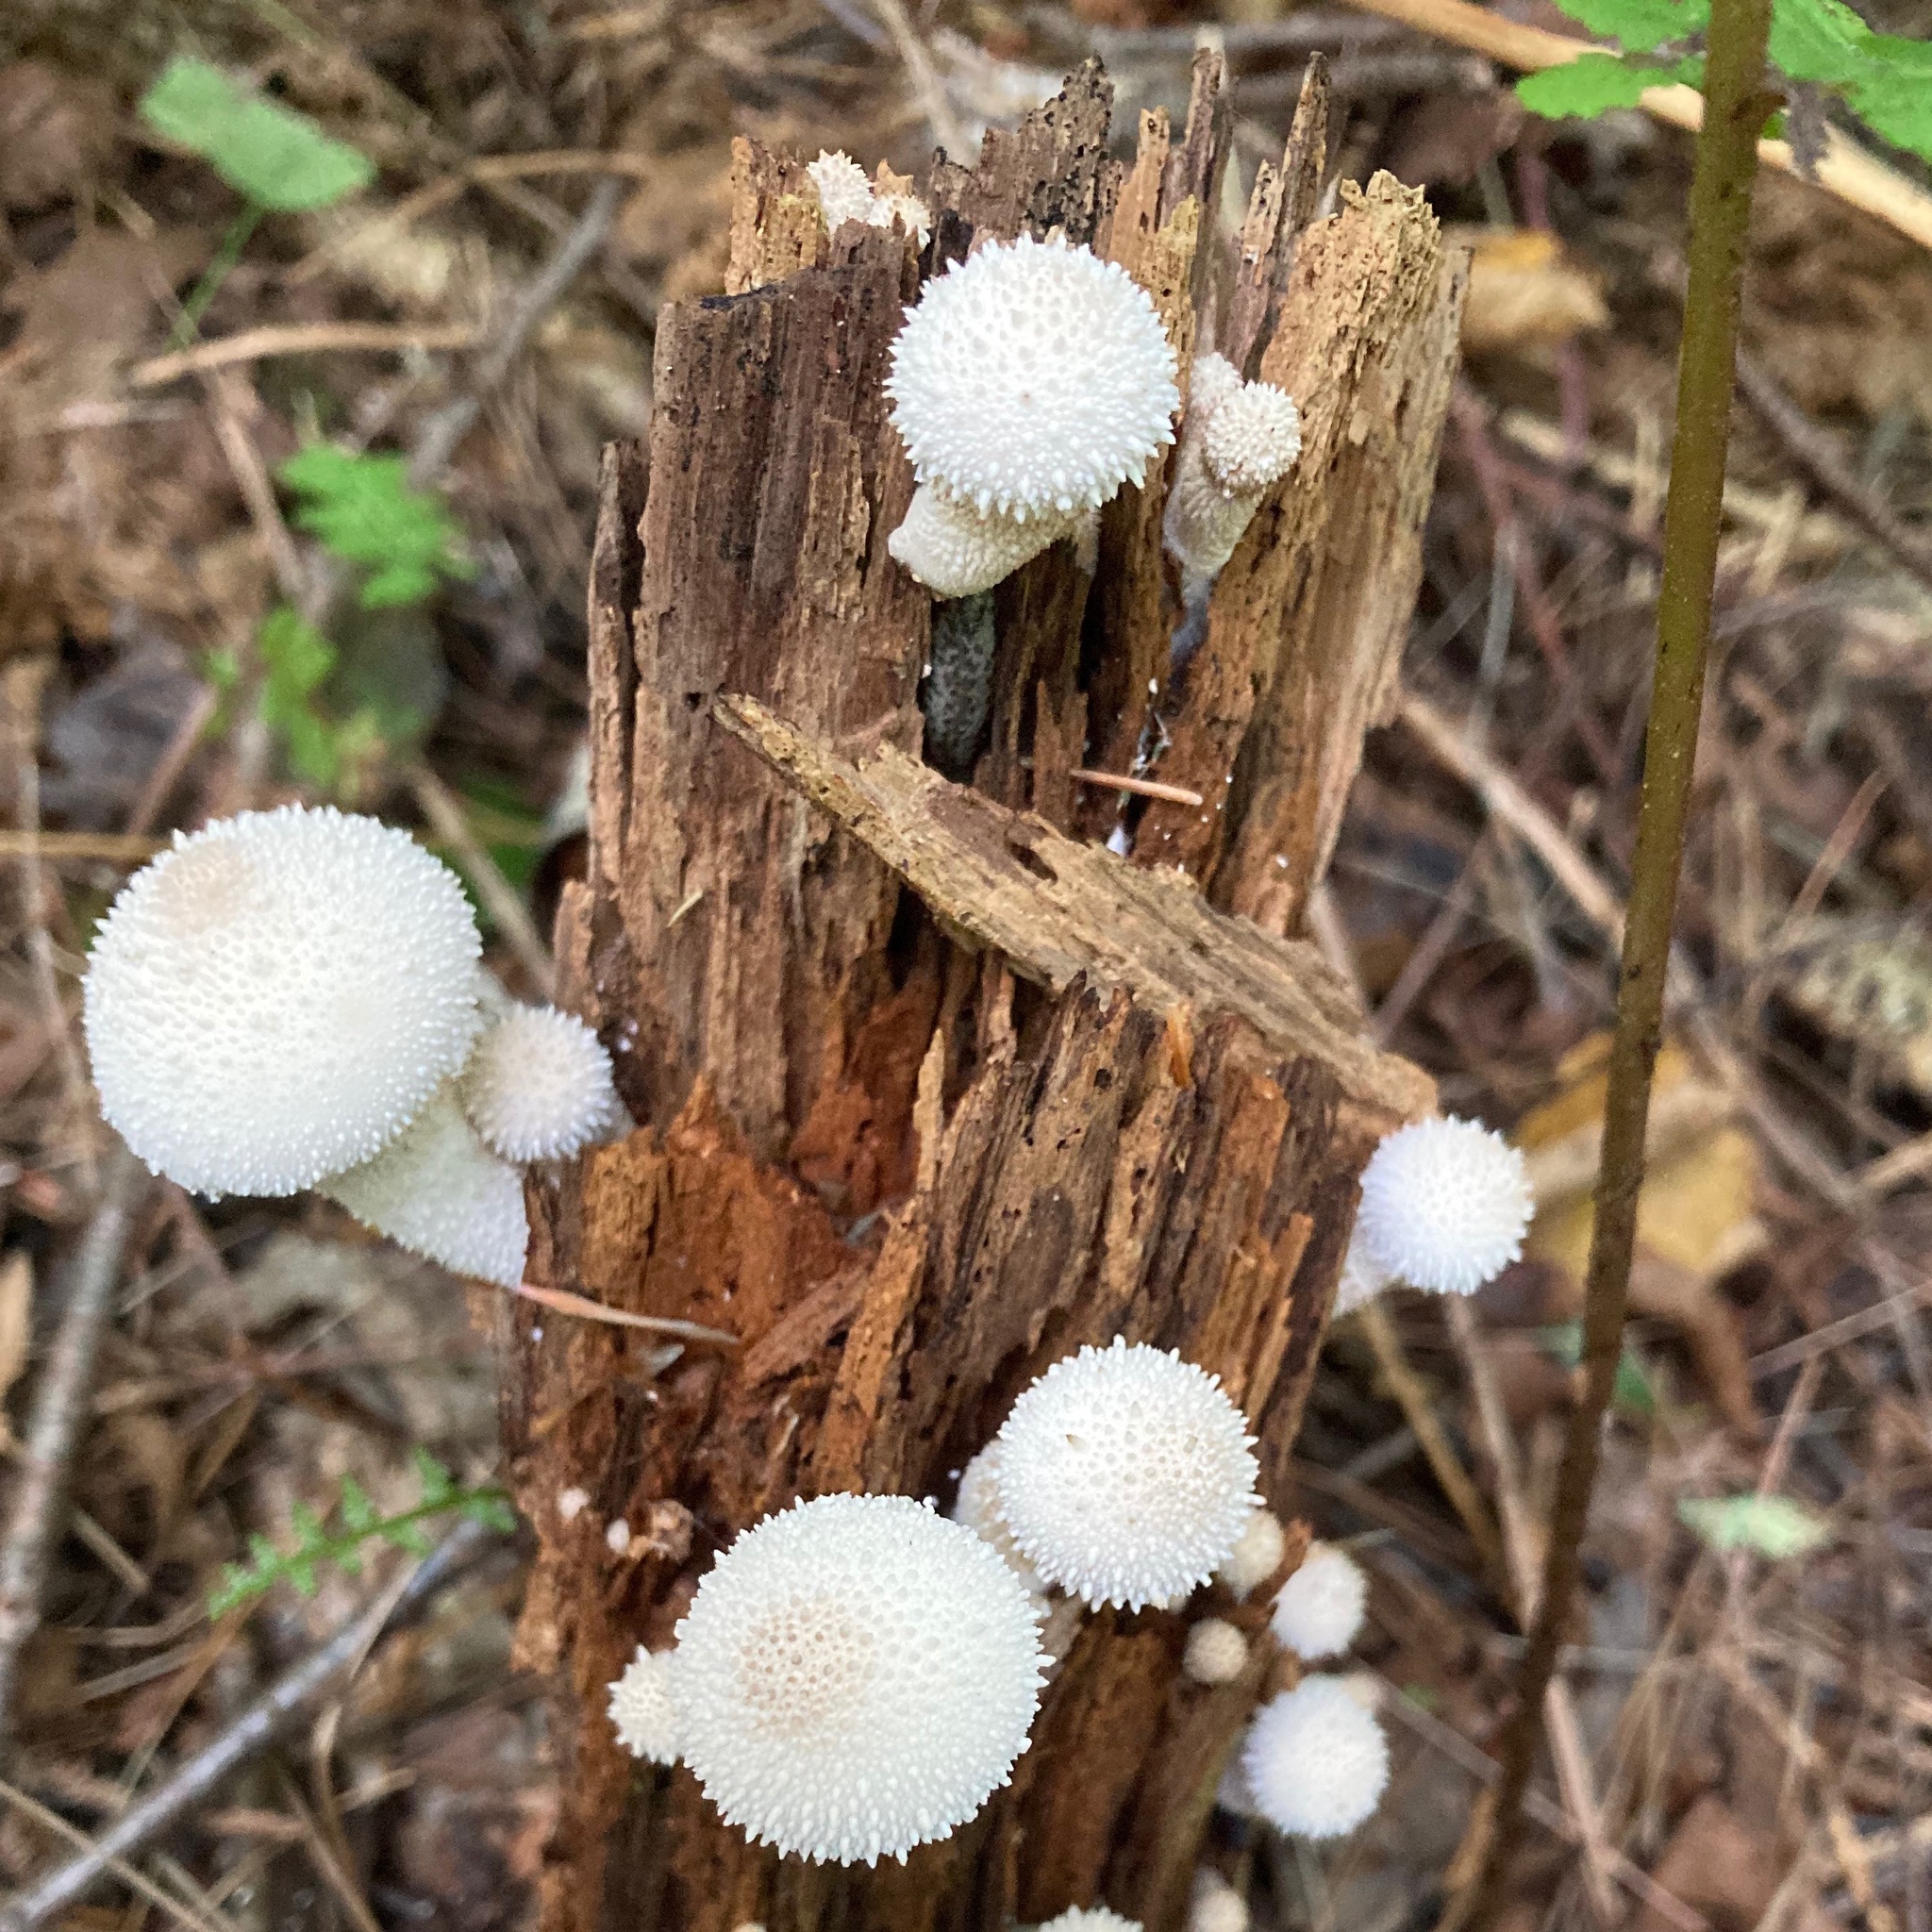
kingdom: Fungi
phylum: Basidiomycota
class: Agaricomycetes
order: Agaricales
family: Lycoperdaceae
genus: Lycoperdon
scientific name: Lycoperdon perlatum
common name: Common puffball
